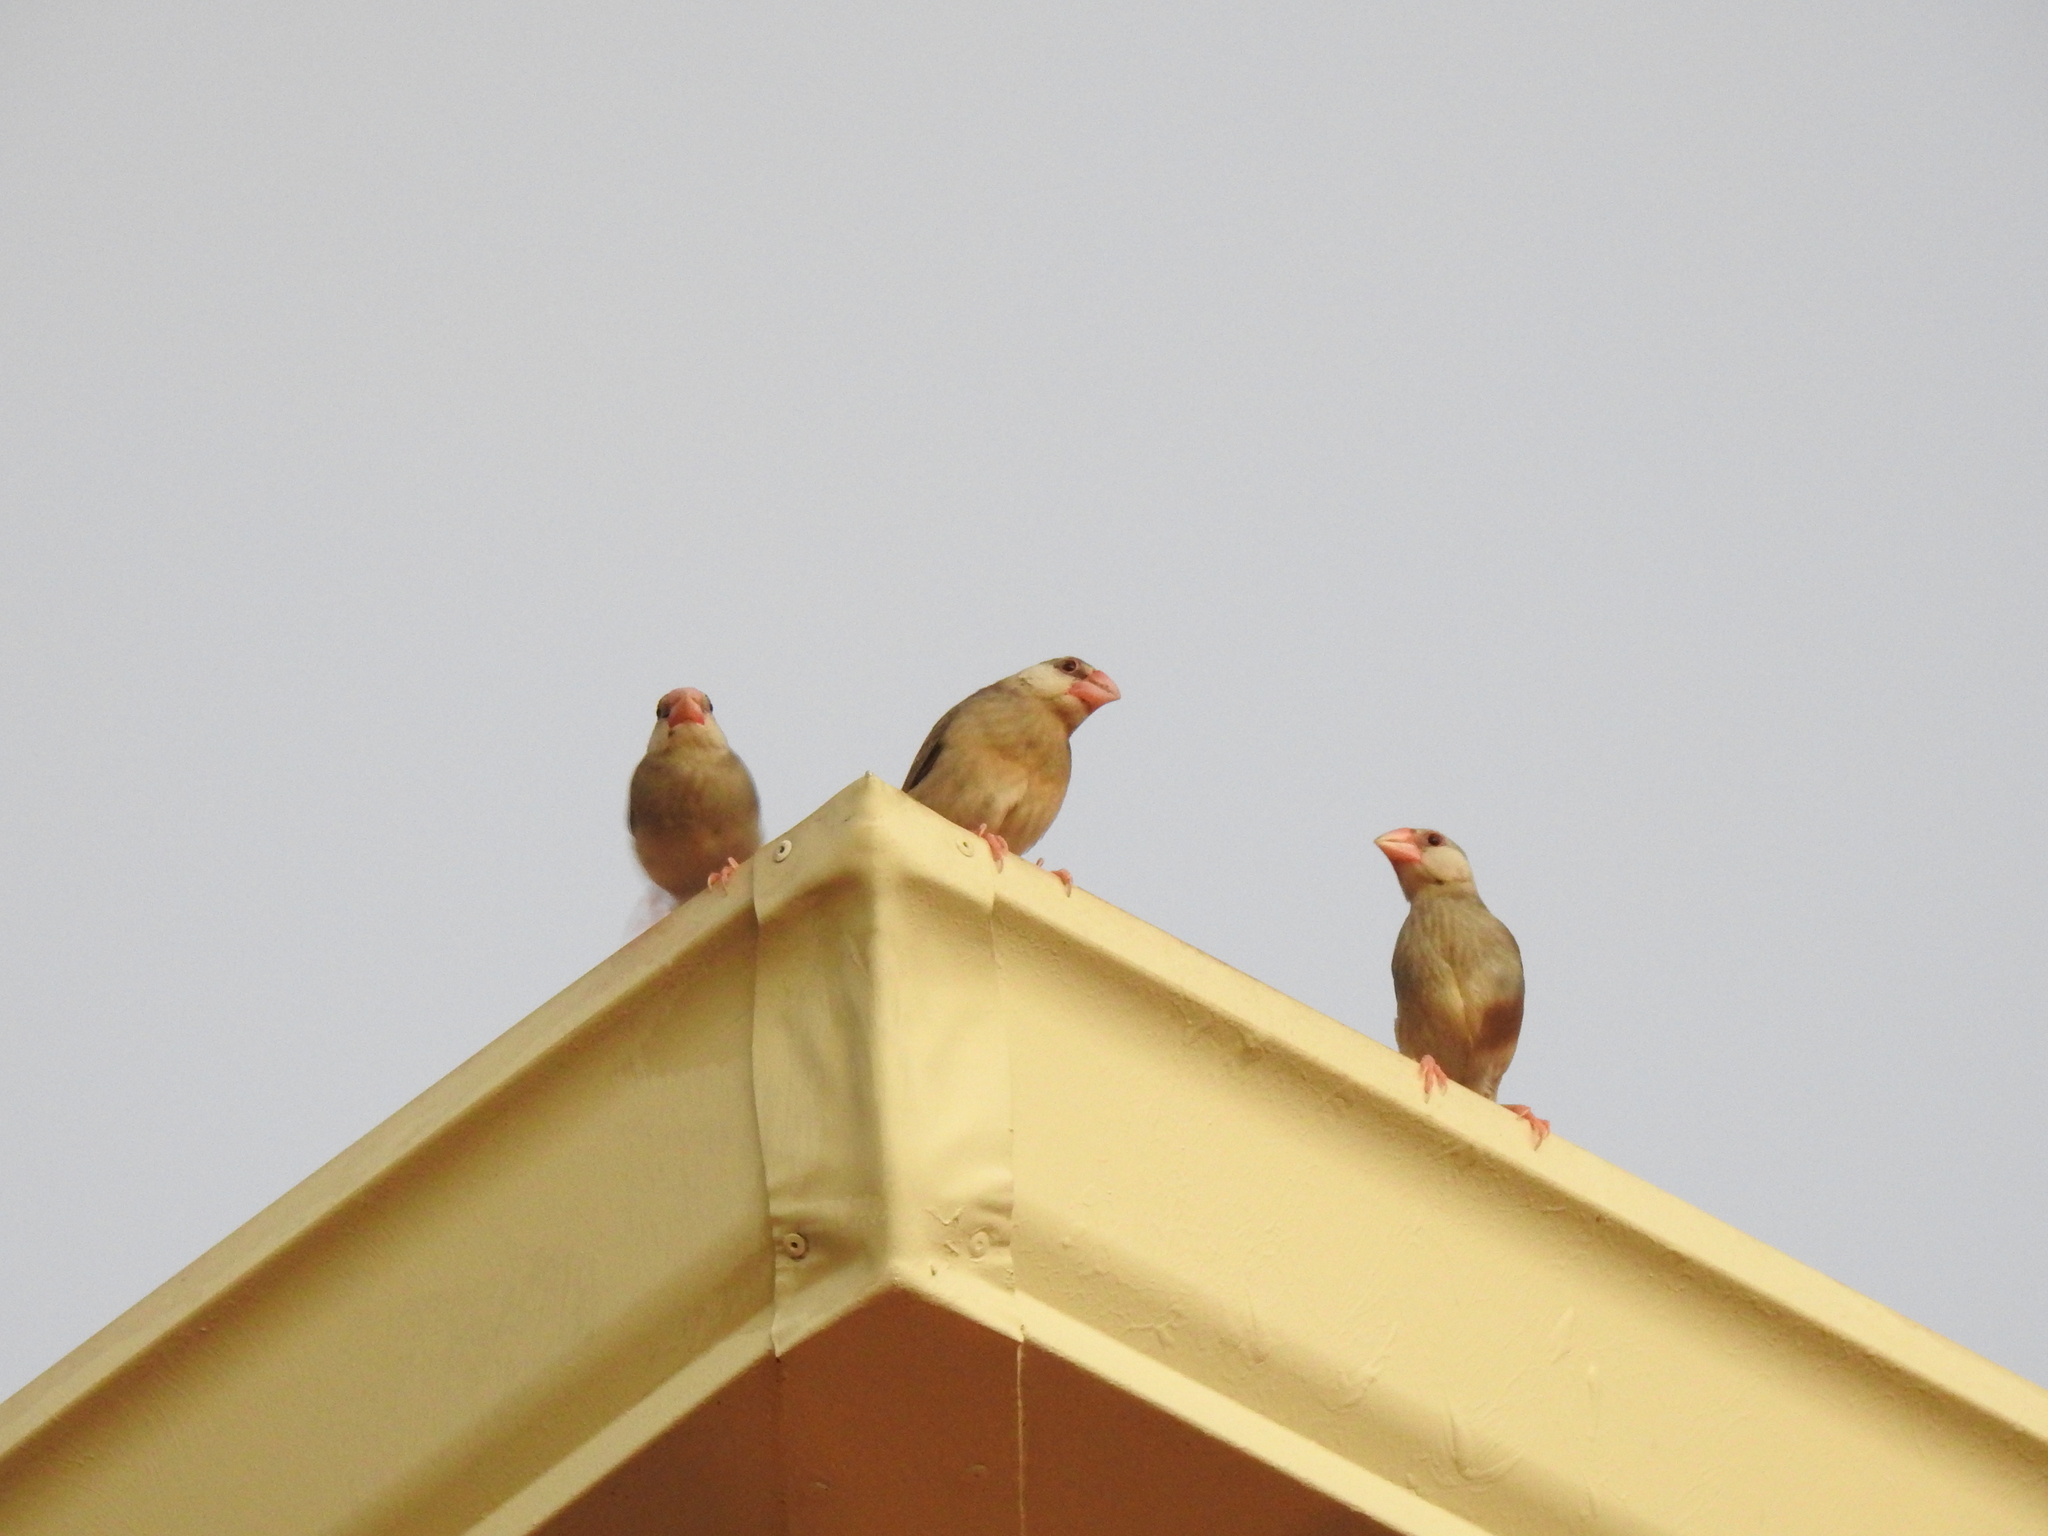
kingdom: Animalia
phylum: Chordata
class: Aves
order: Passeriformes
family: Estrildidae
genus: Lonchura
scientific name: Lonchura oryzivora
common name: Java sparrow
